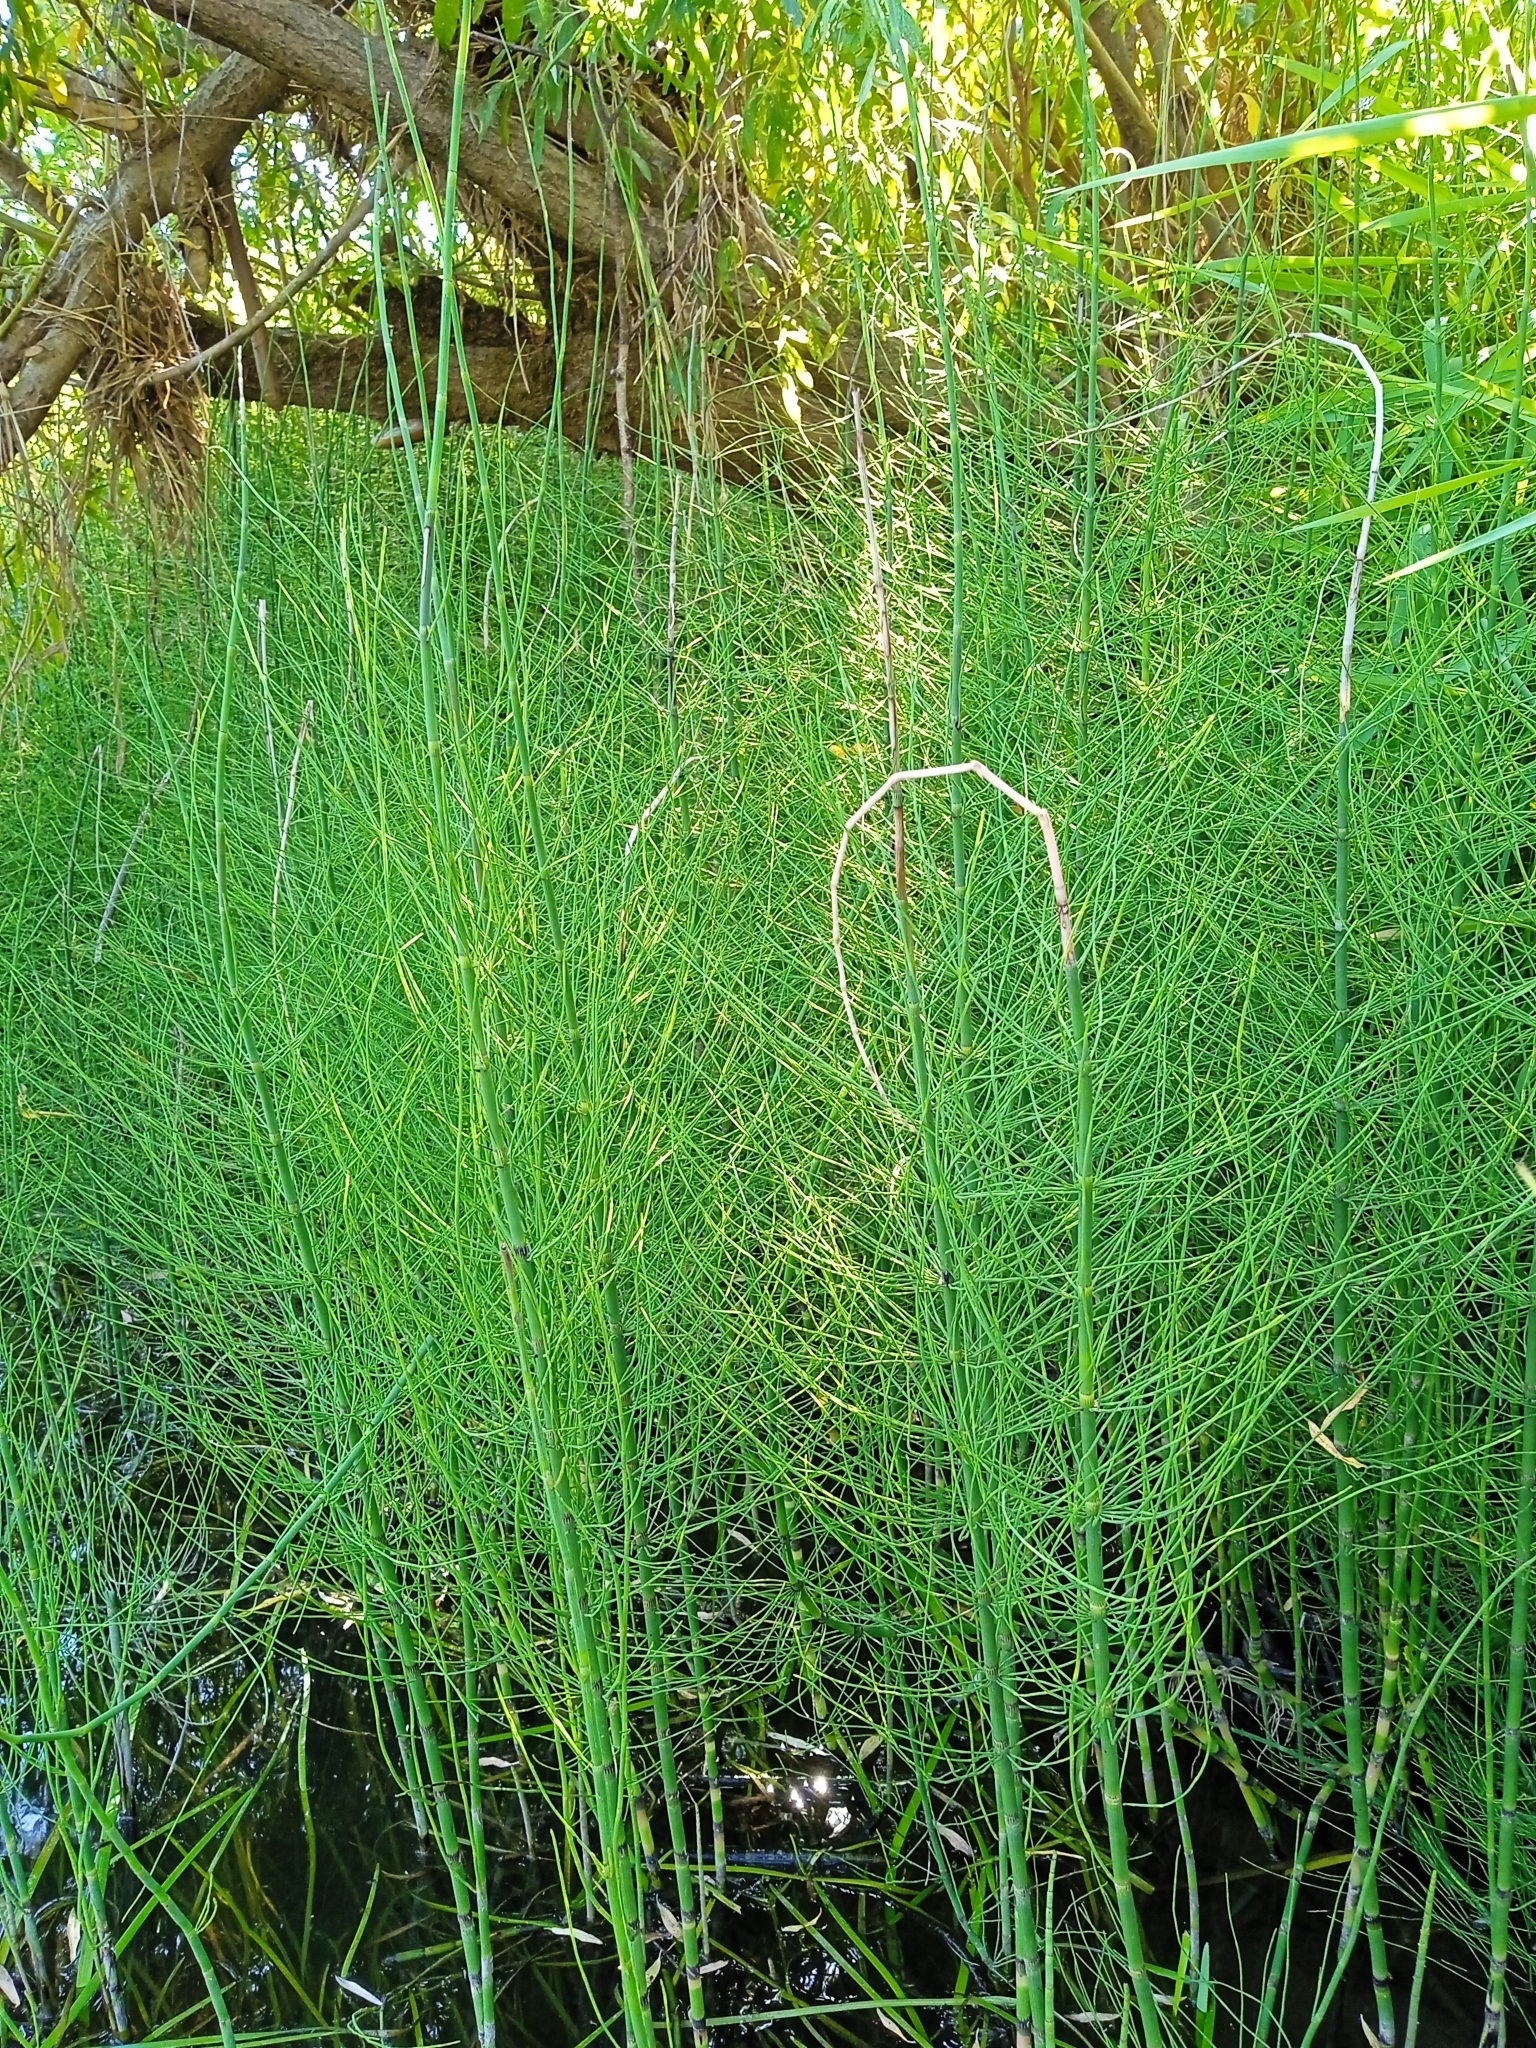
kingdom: Plantae
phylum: Tracheophyta
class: Polypodiopsida
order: Equisetales
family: Equisetaceae
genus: Equisetum
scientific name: Equisetum fluviatile
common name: Water horsetail
